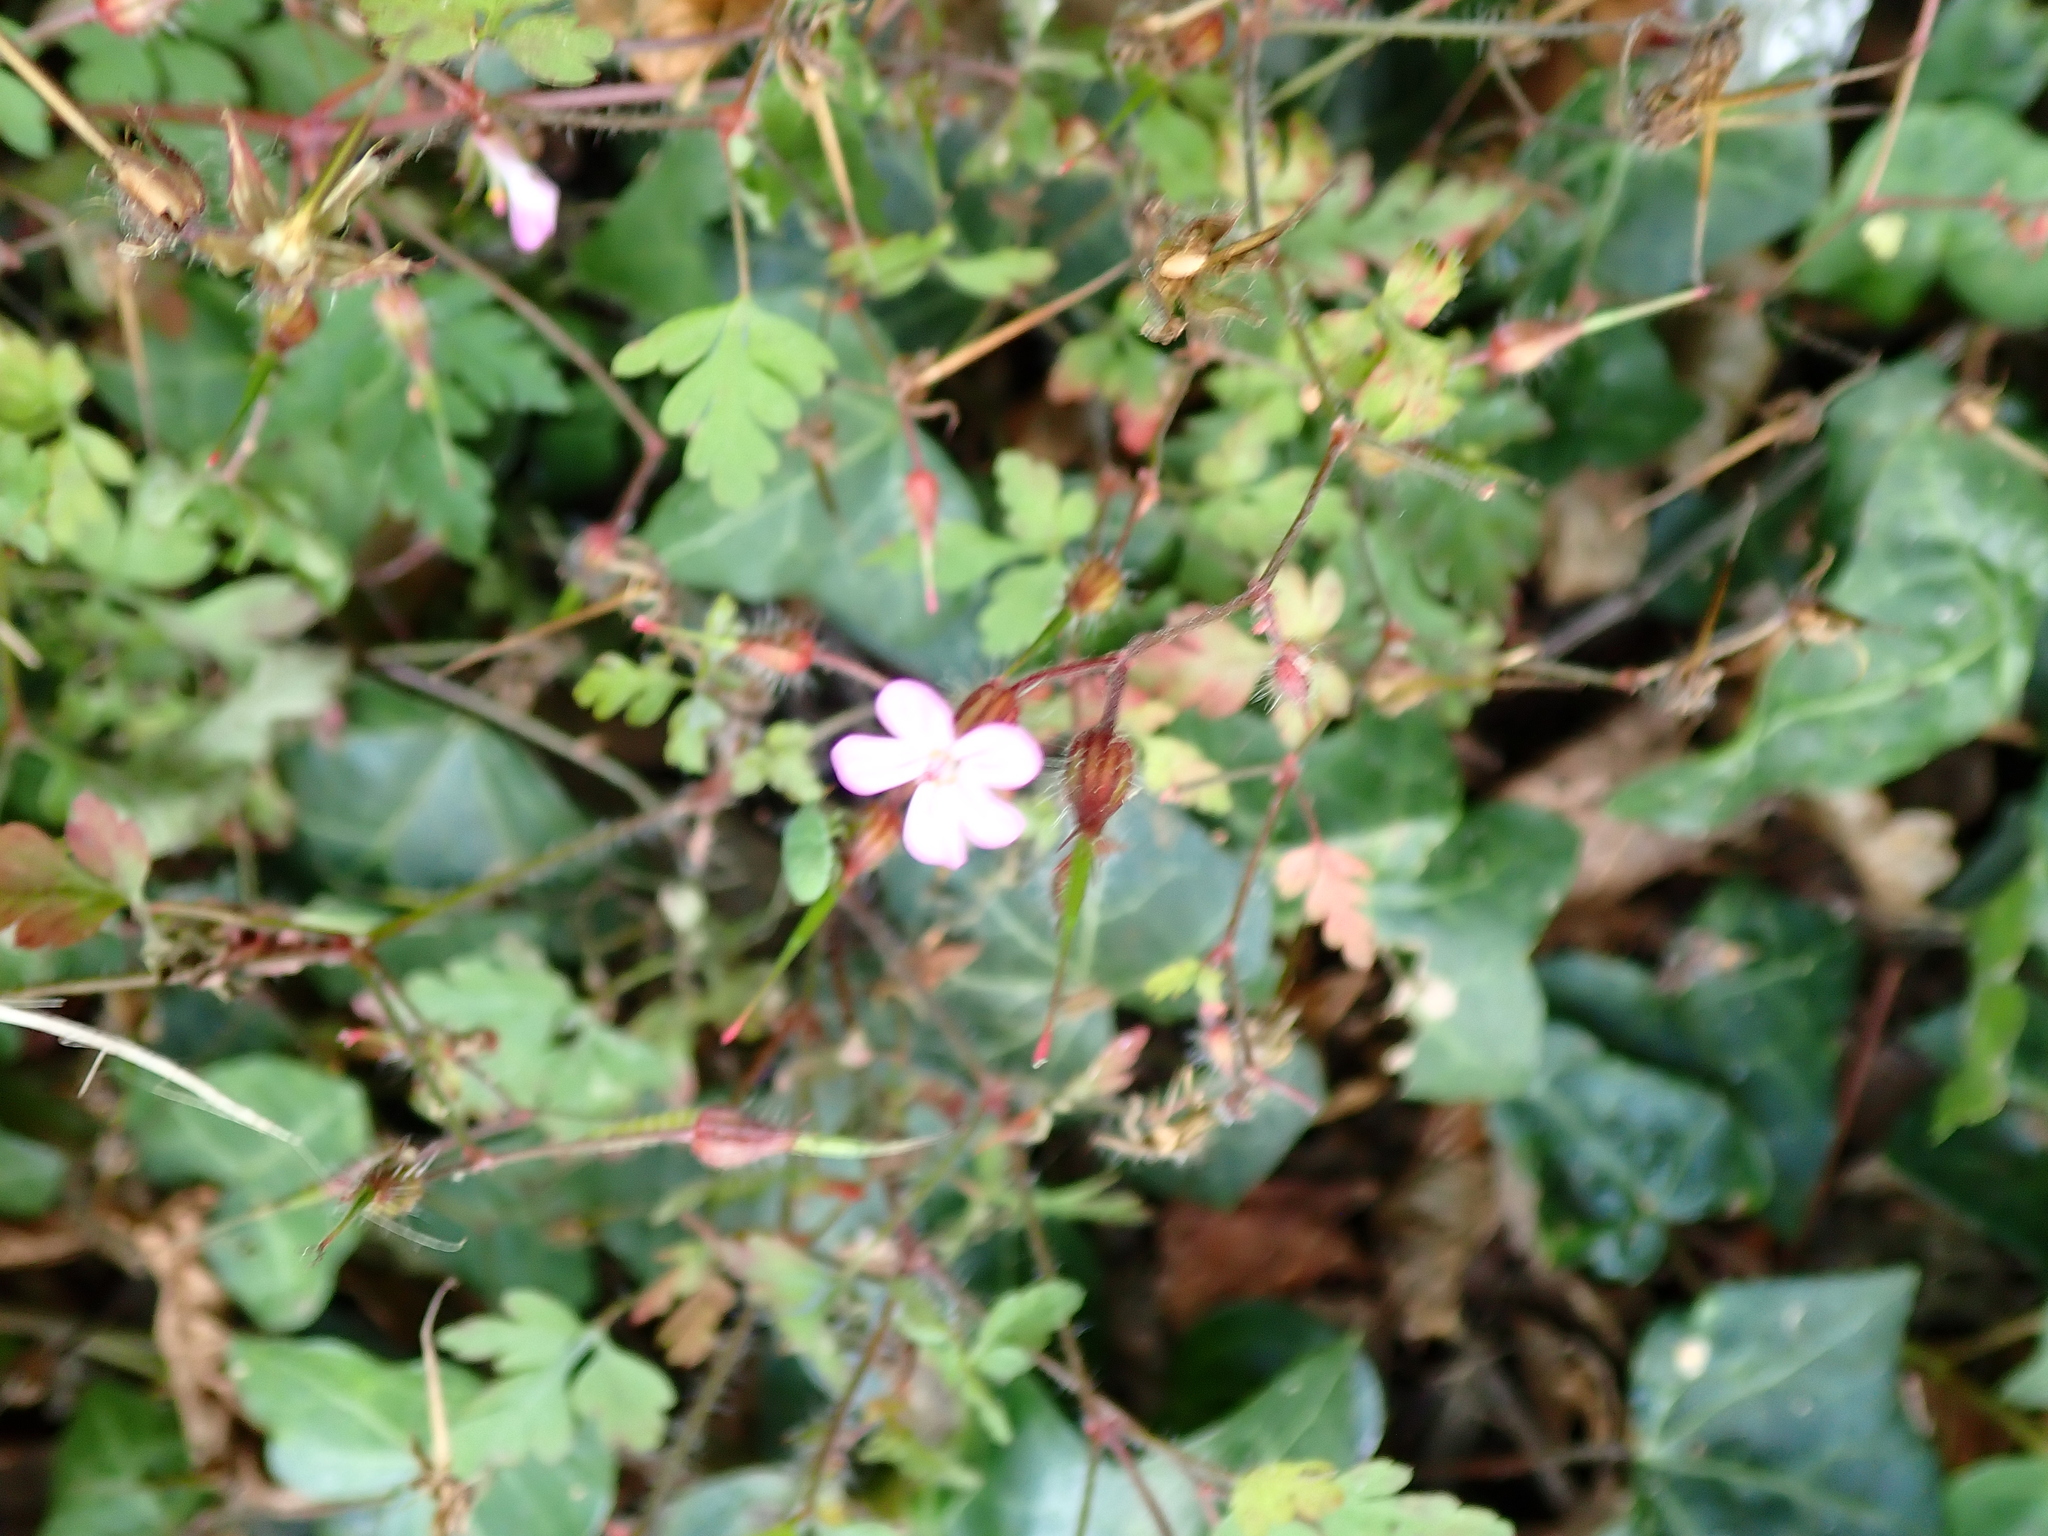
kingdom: Plantae
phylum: Tracheophyta
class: Magnoliopsida
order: Geraniales
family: Geraniaceae
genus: Geranium
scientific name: Geranium robertianum
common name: Herb-robert
